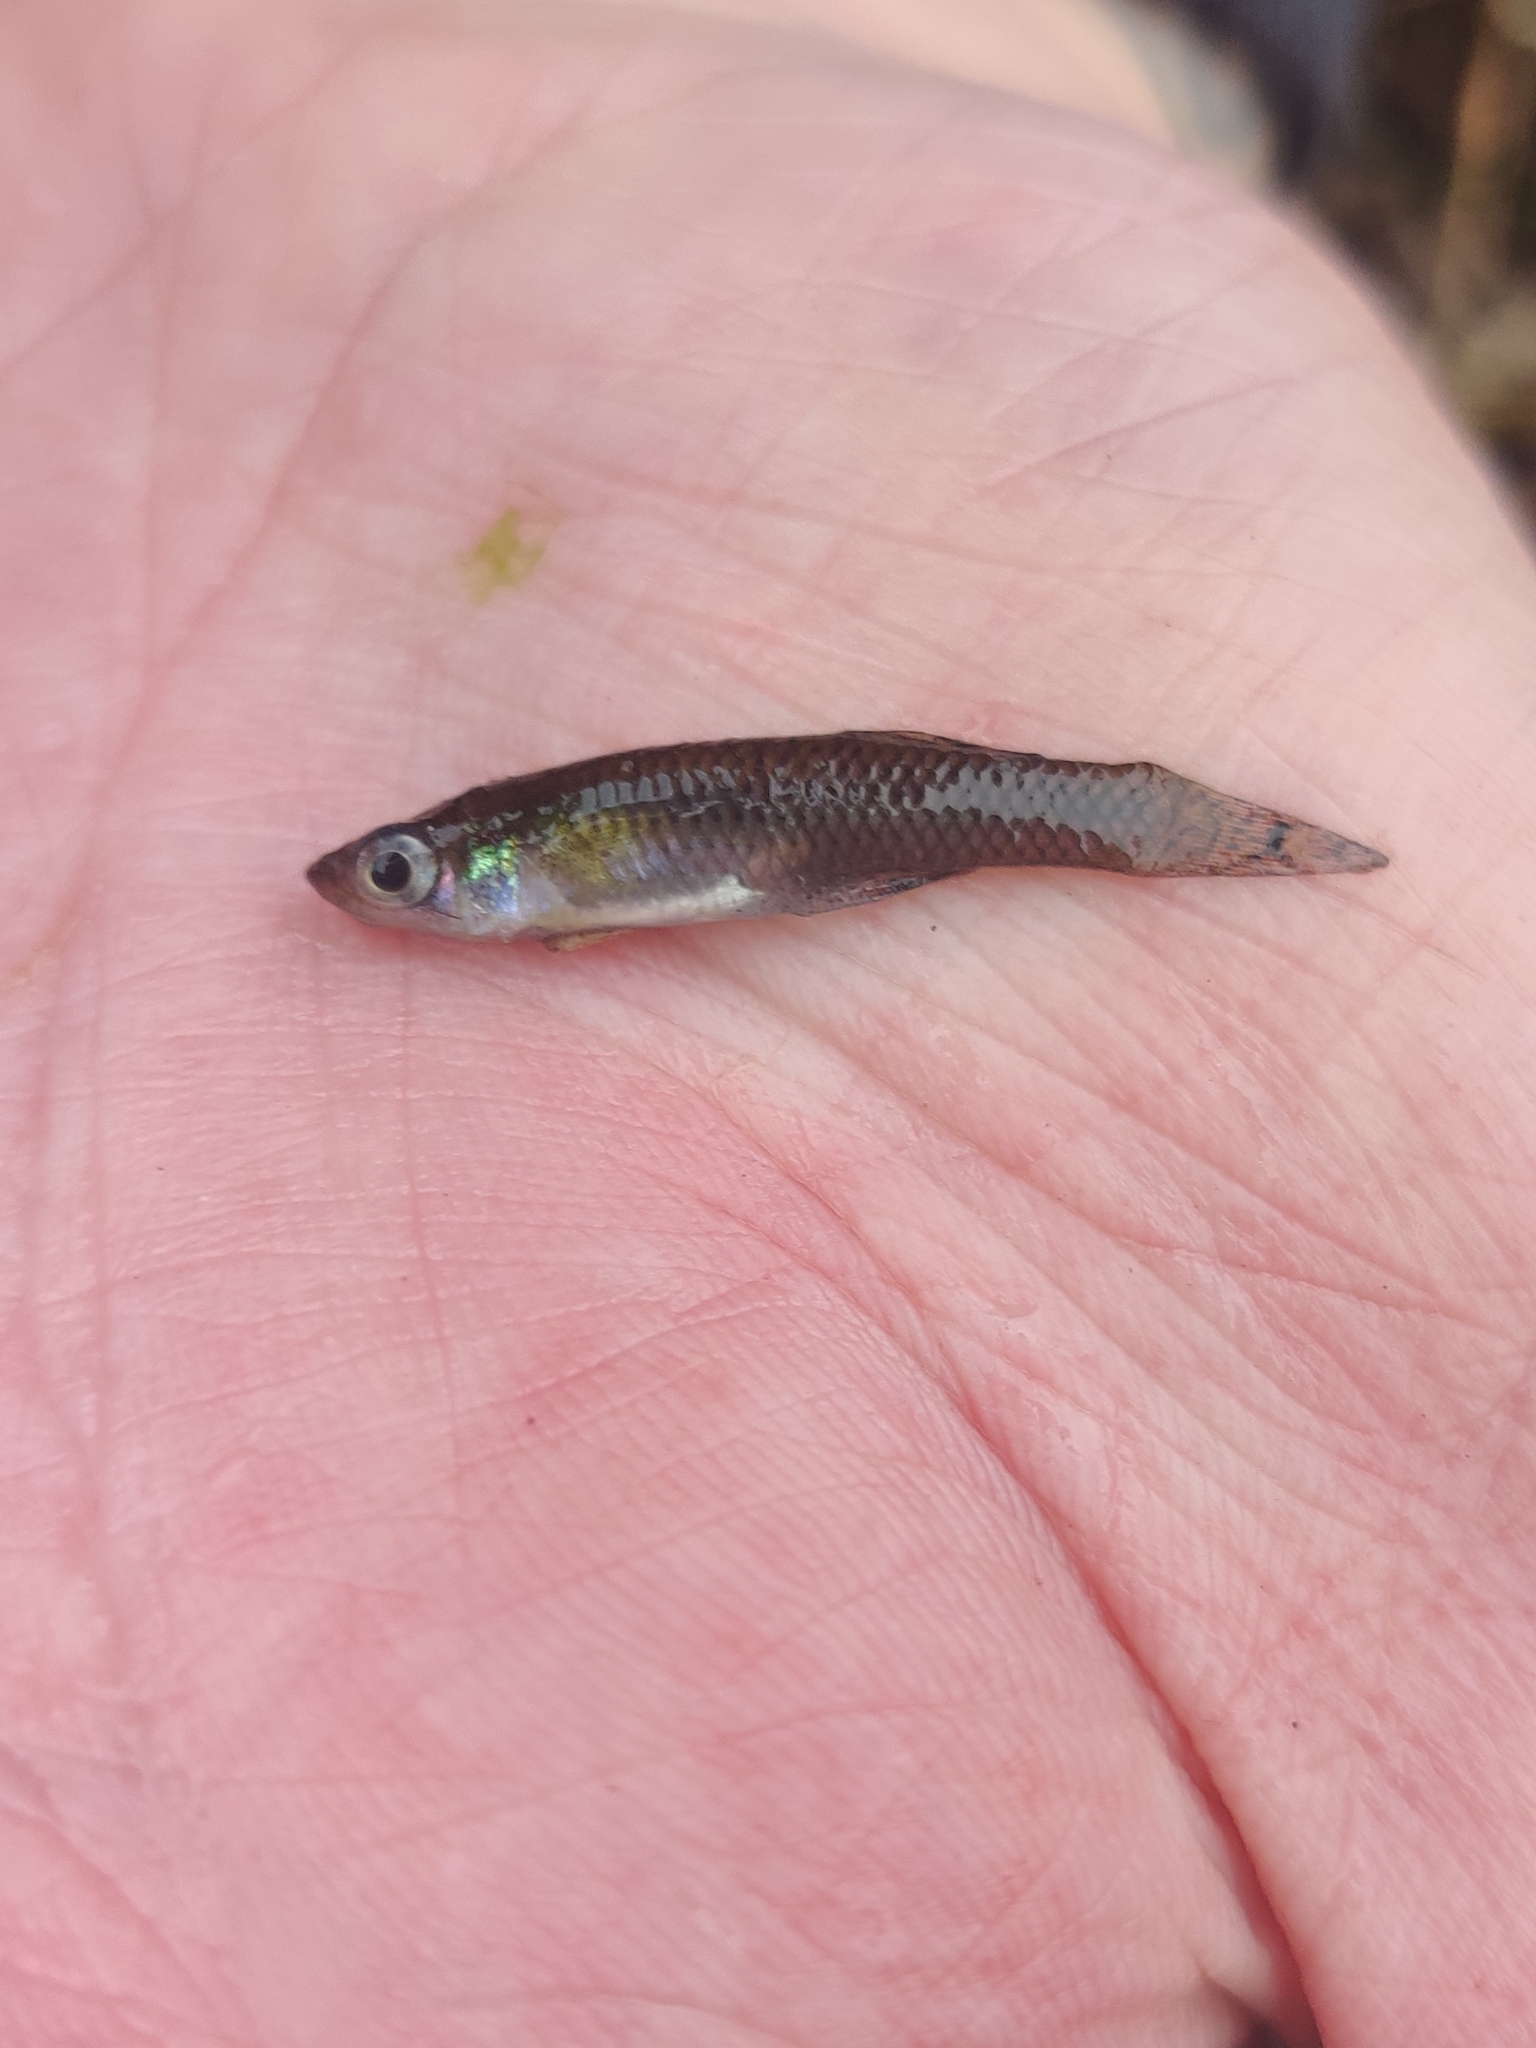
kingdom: Animalia
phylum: Chordata
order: Cyprinodontiformes
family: Poeciliidae
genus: Gambusia
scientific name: Gambusia holbrooki
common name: Eastern mosquitofish
